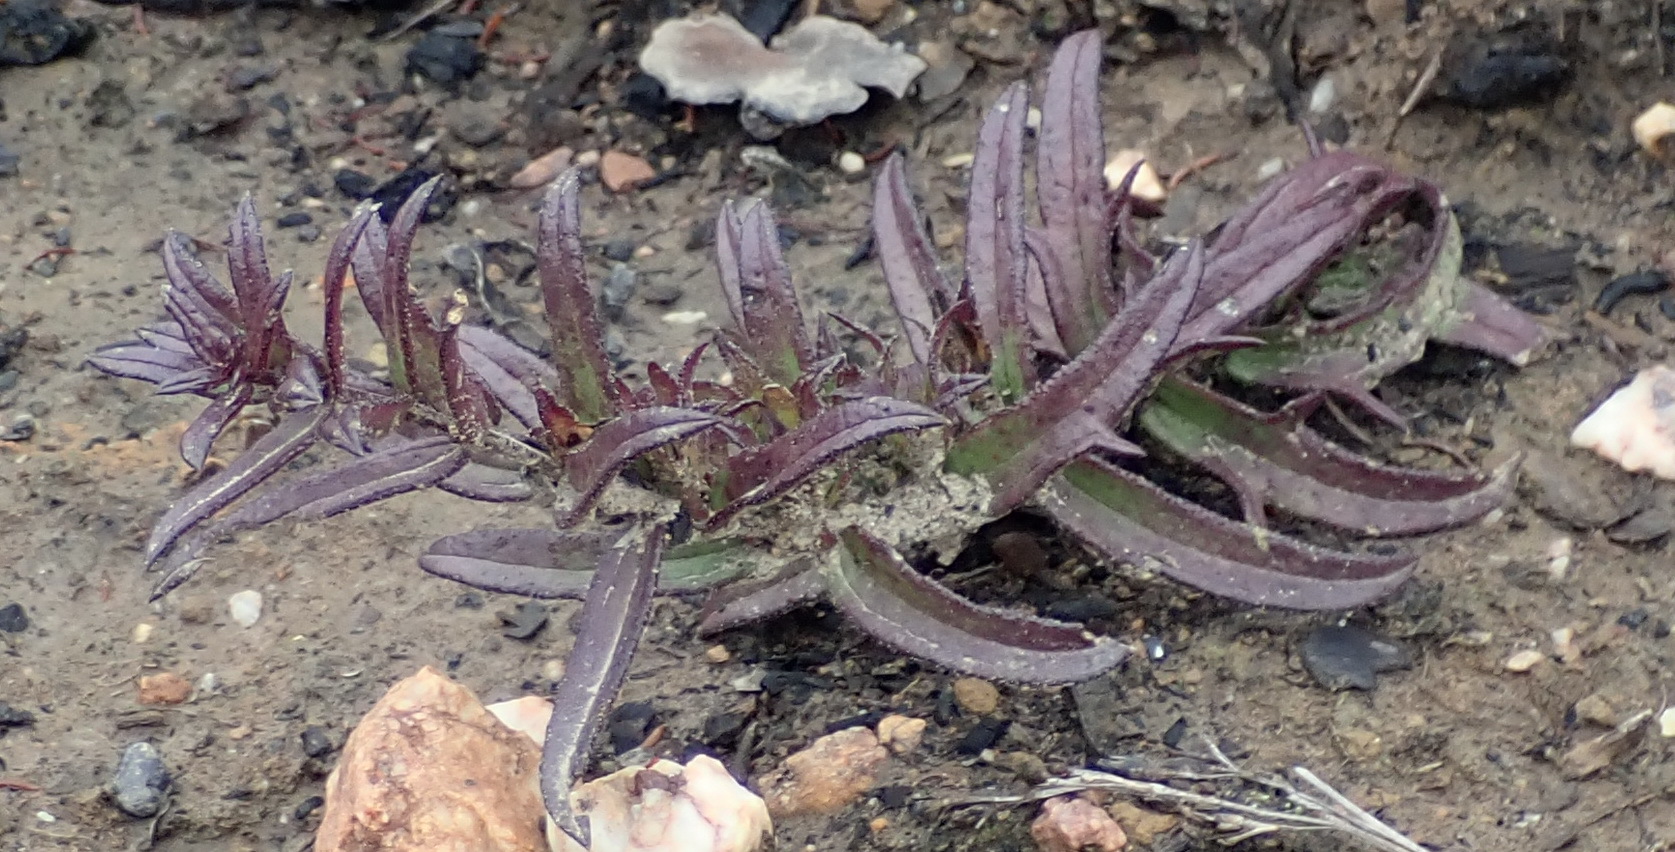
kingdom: Plantae
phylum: Tracheophyta
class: Magnoliopsida
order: Lamiales
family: Orobanchaceae
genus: Graderia
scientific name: Graderia scabra
